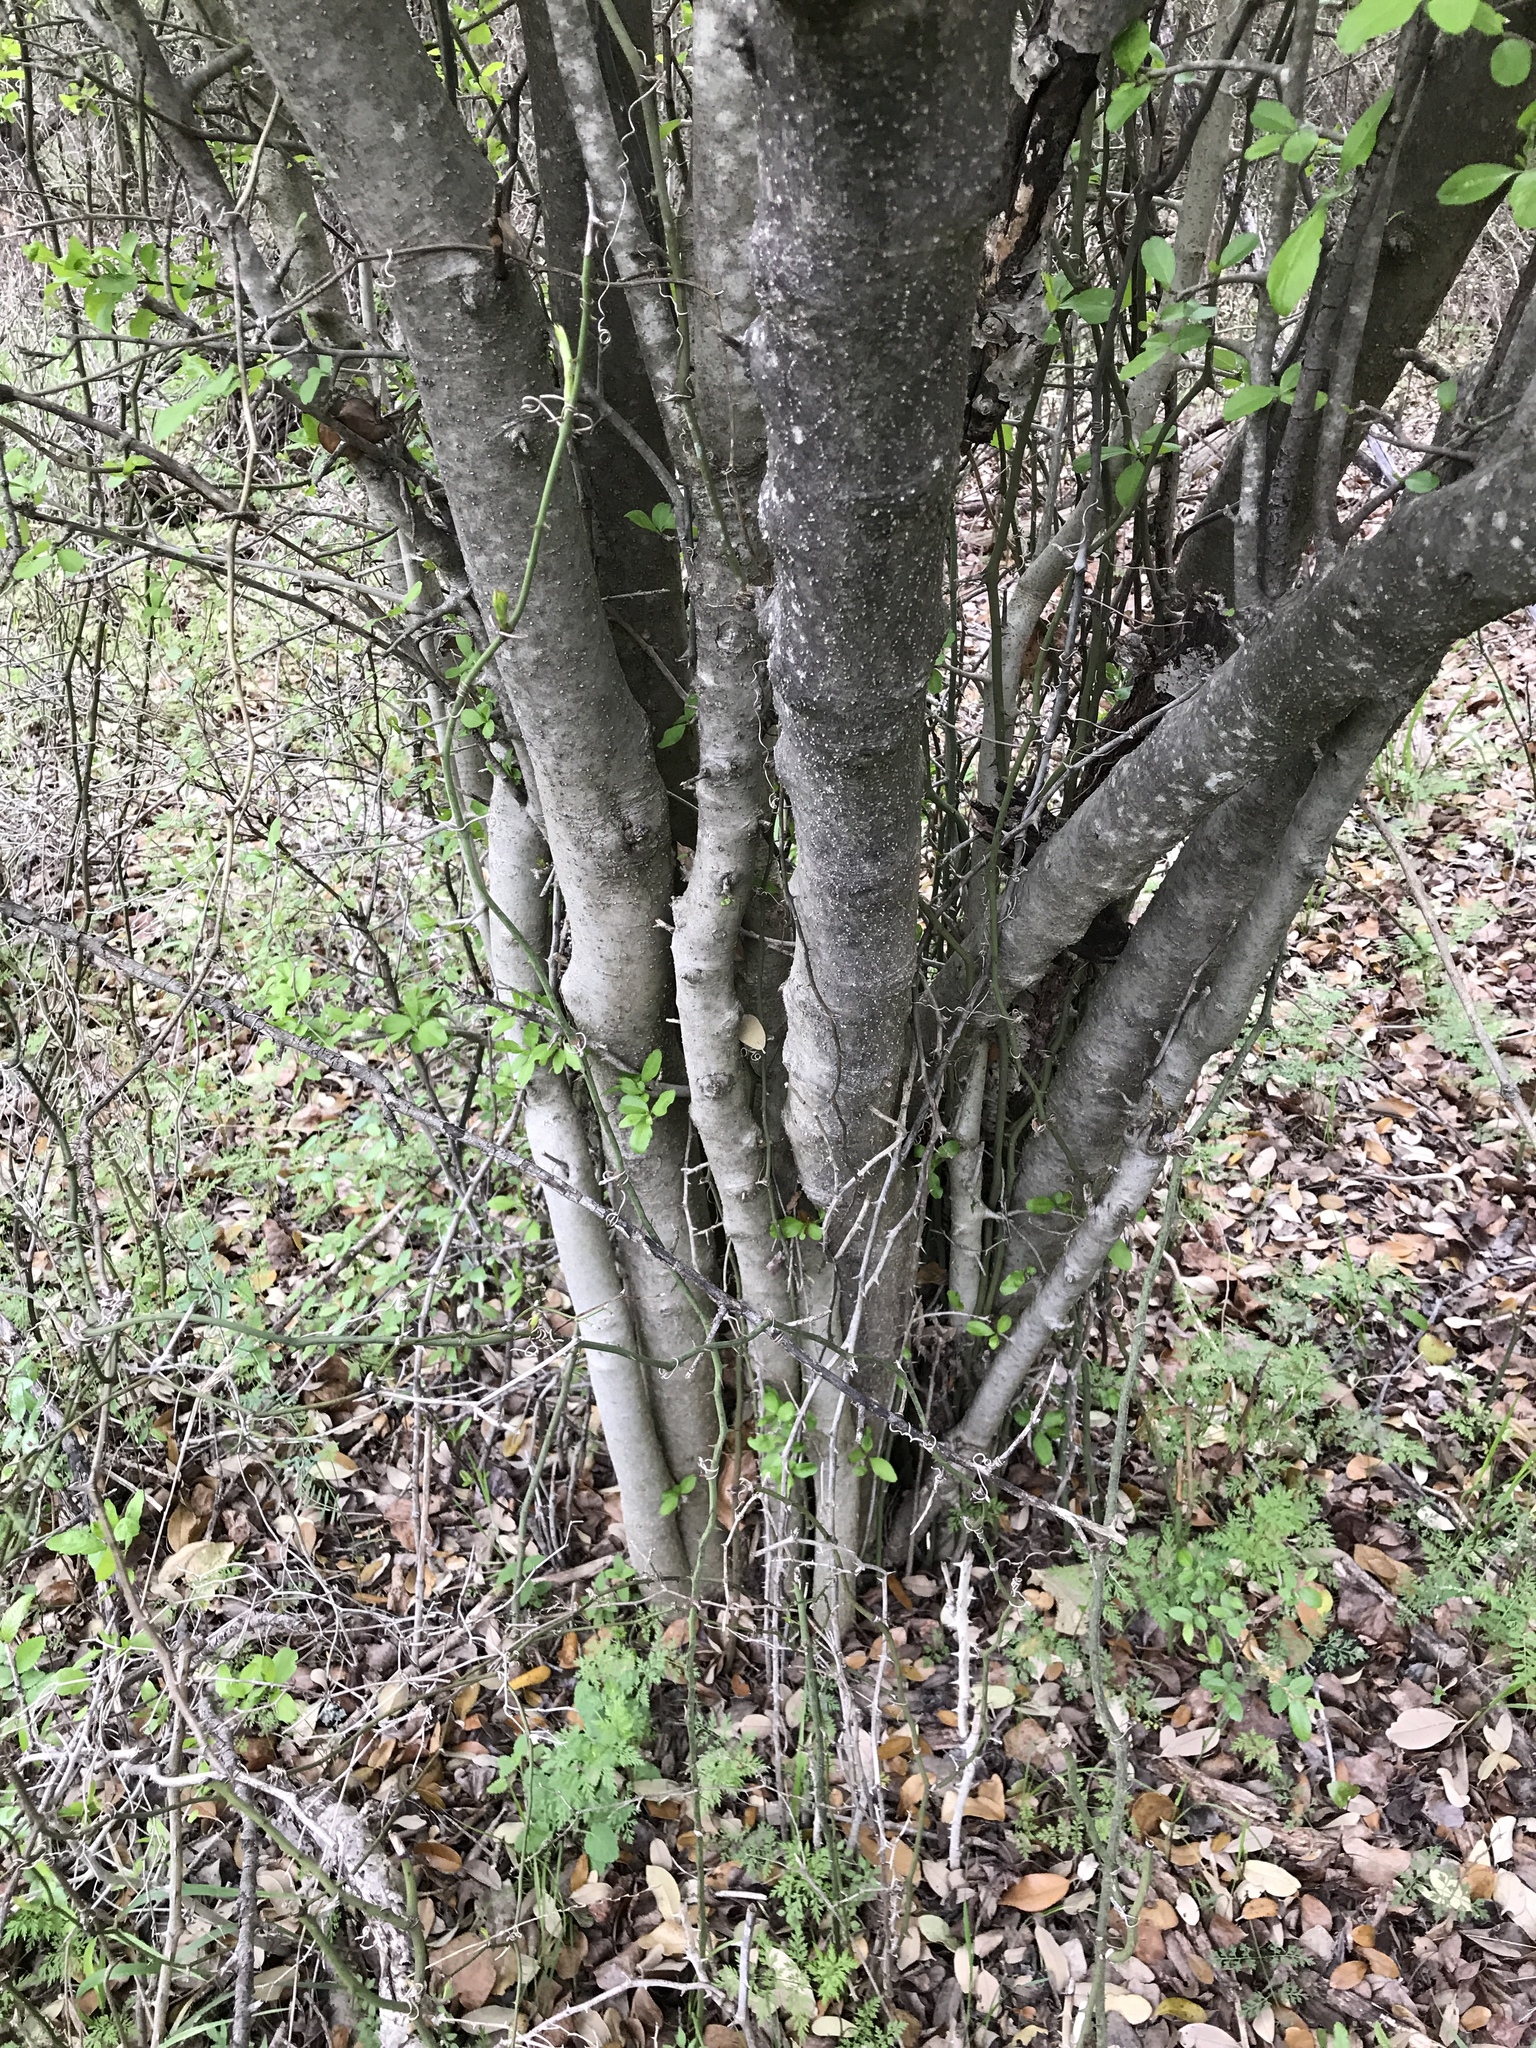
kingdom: Plantae
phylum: Tracheophyta
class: Magnoliopsida
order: Aquifoliales
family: Aquifoliaceae
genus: Ilex
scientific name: Ilex decidua
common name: Possum-haw
